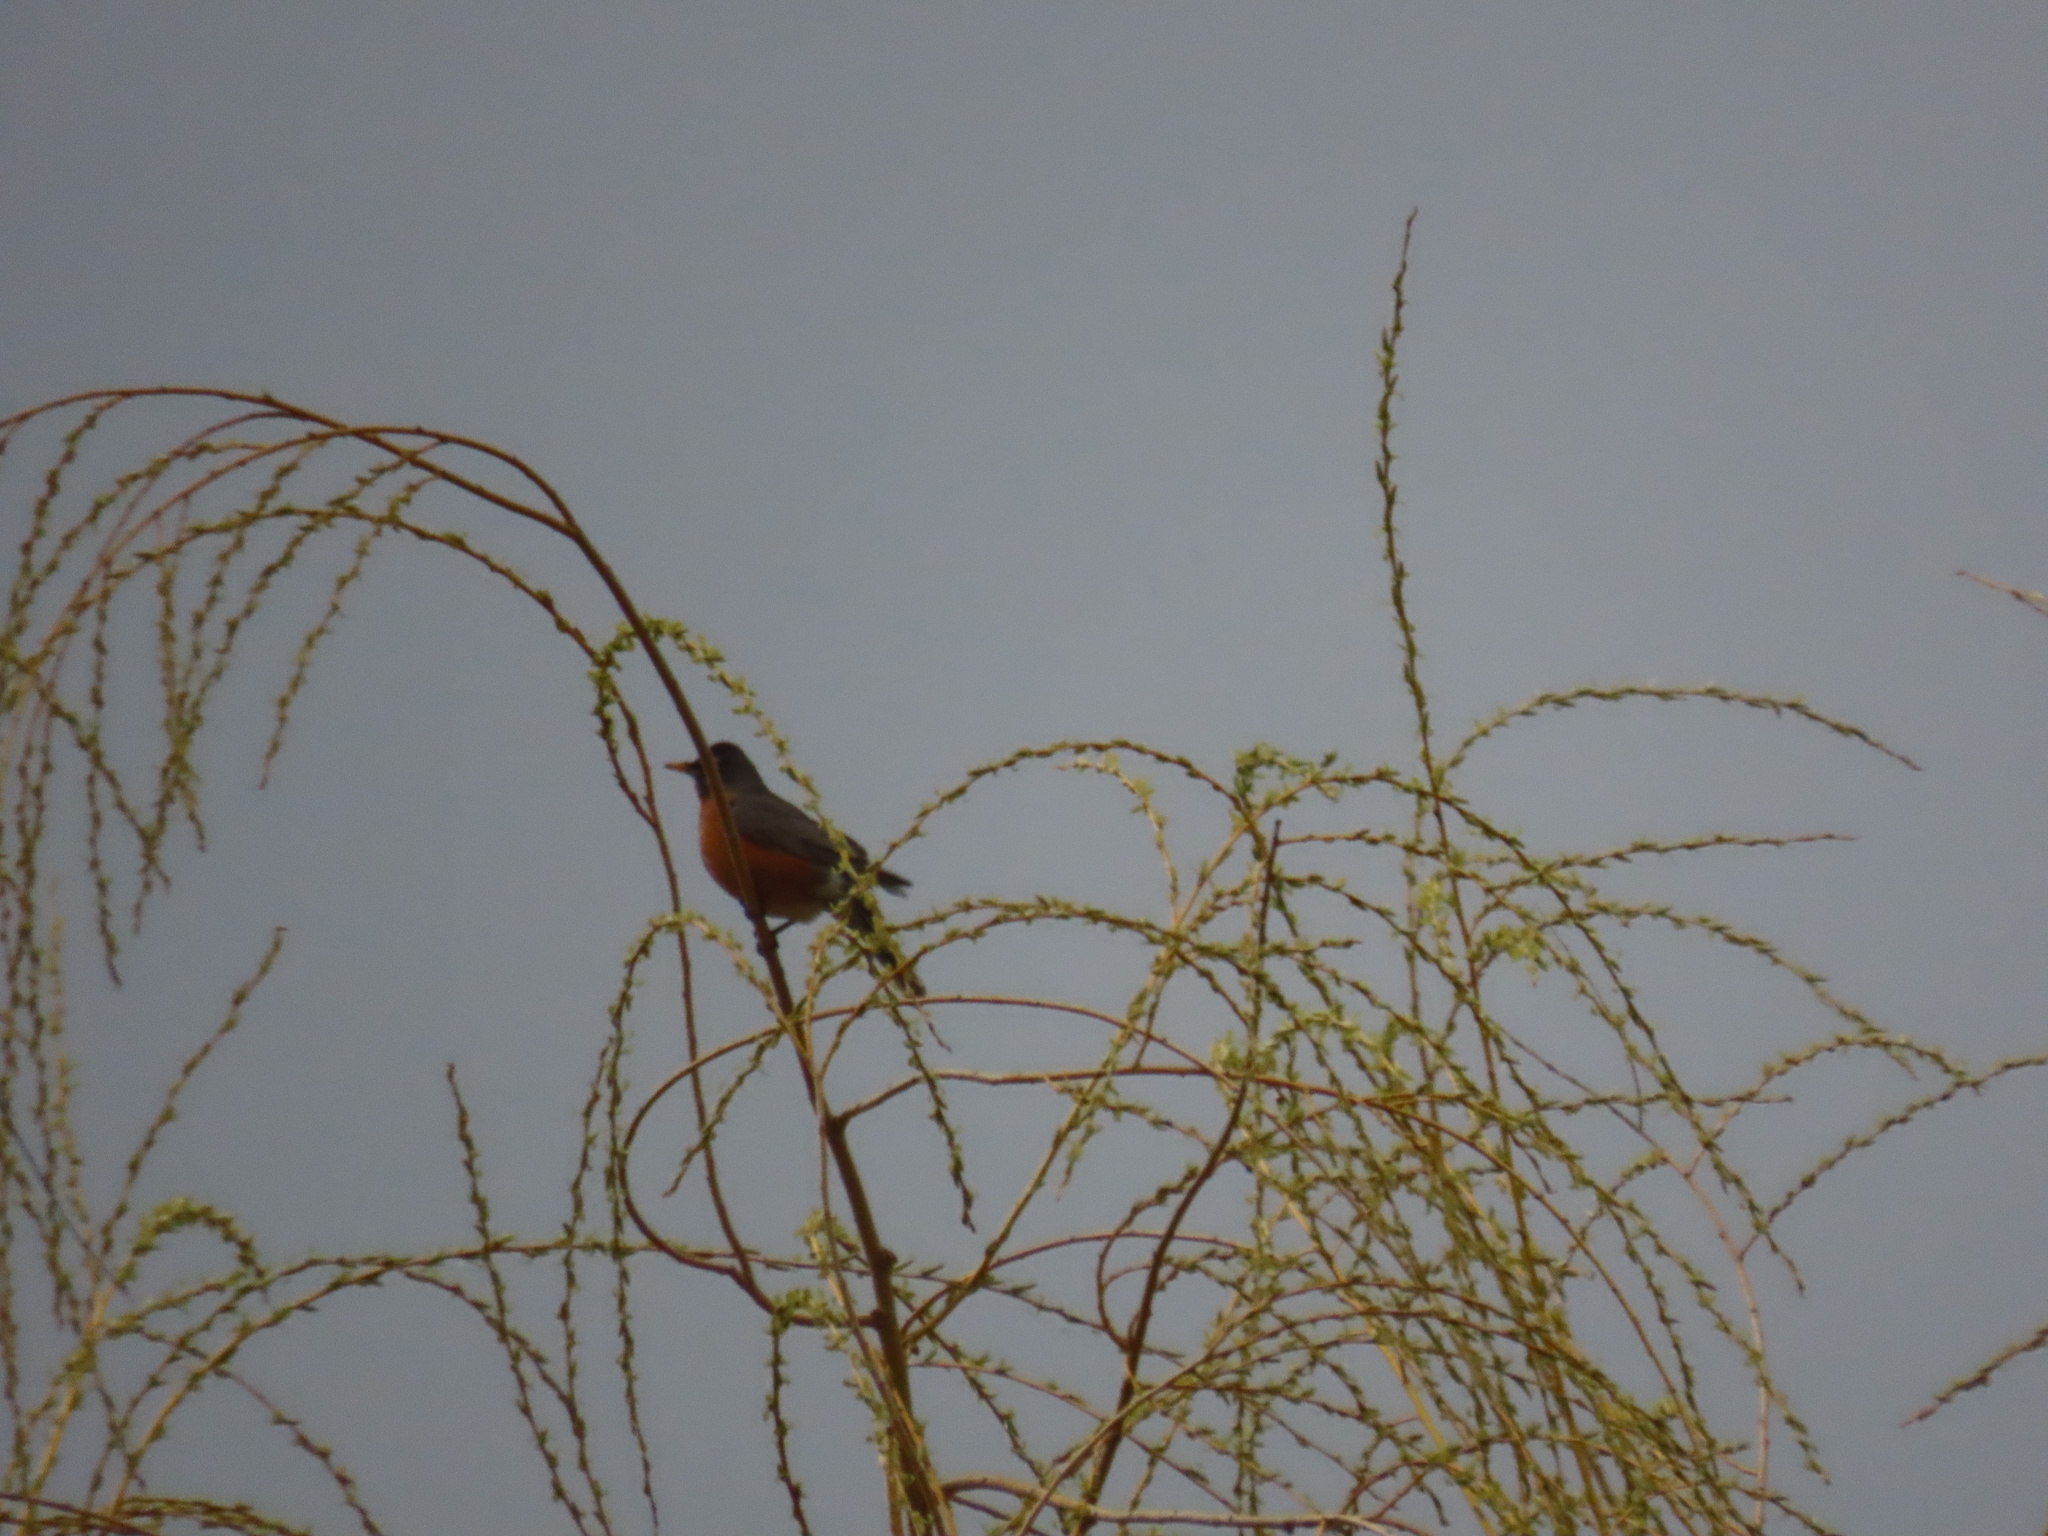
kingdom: Animalia
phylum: Chordata
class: Aves
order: Passeriformes
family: Turdidae
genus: Turdus
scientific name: Turdus migratorius
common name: American robin
